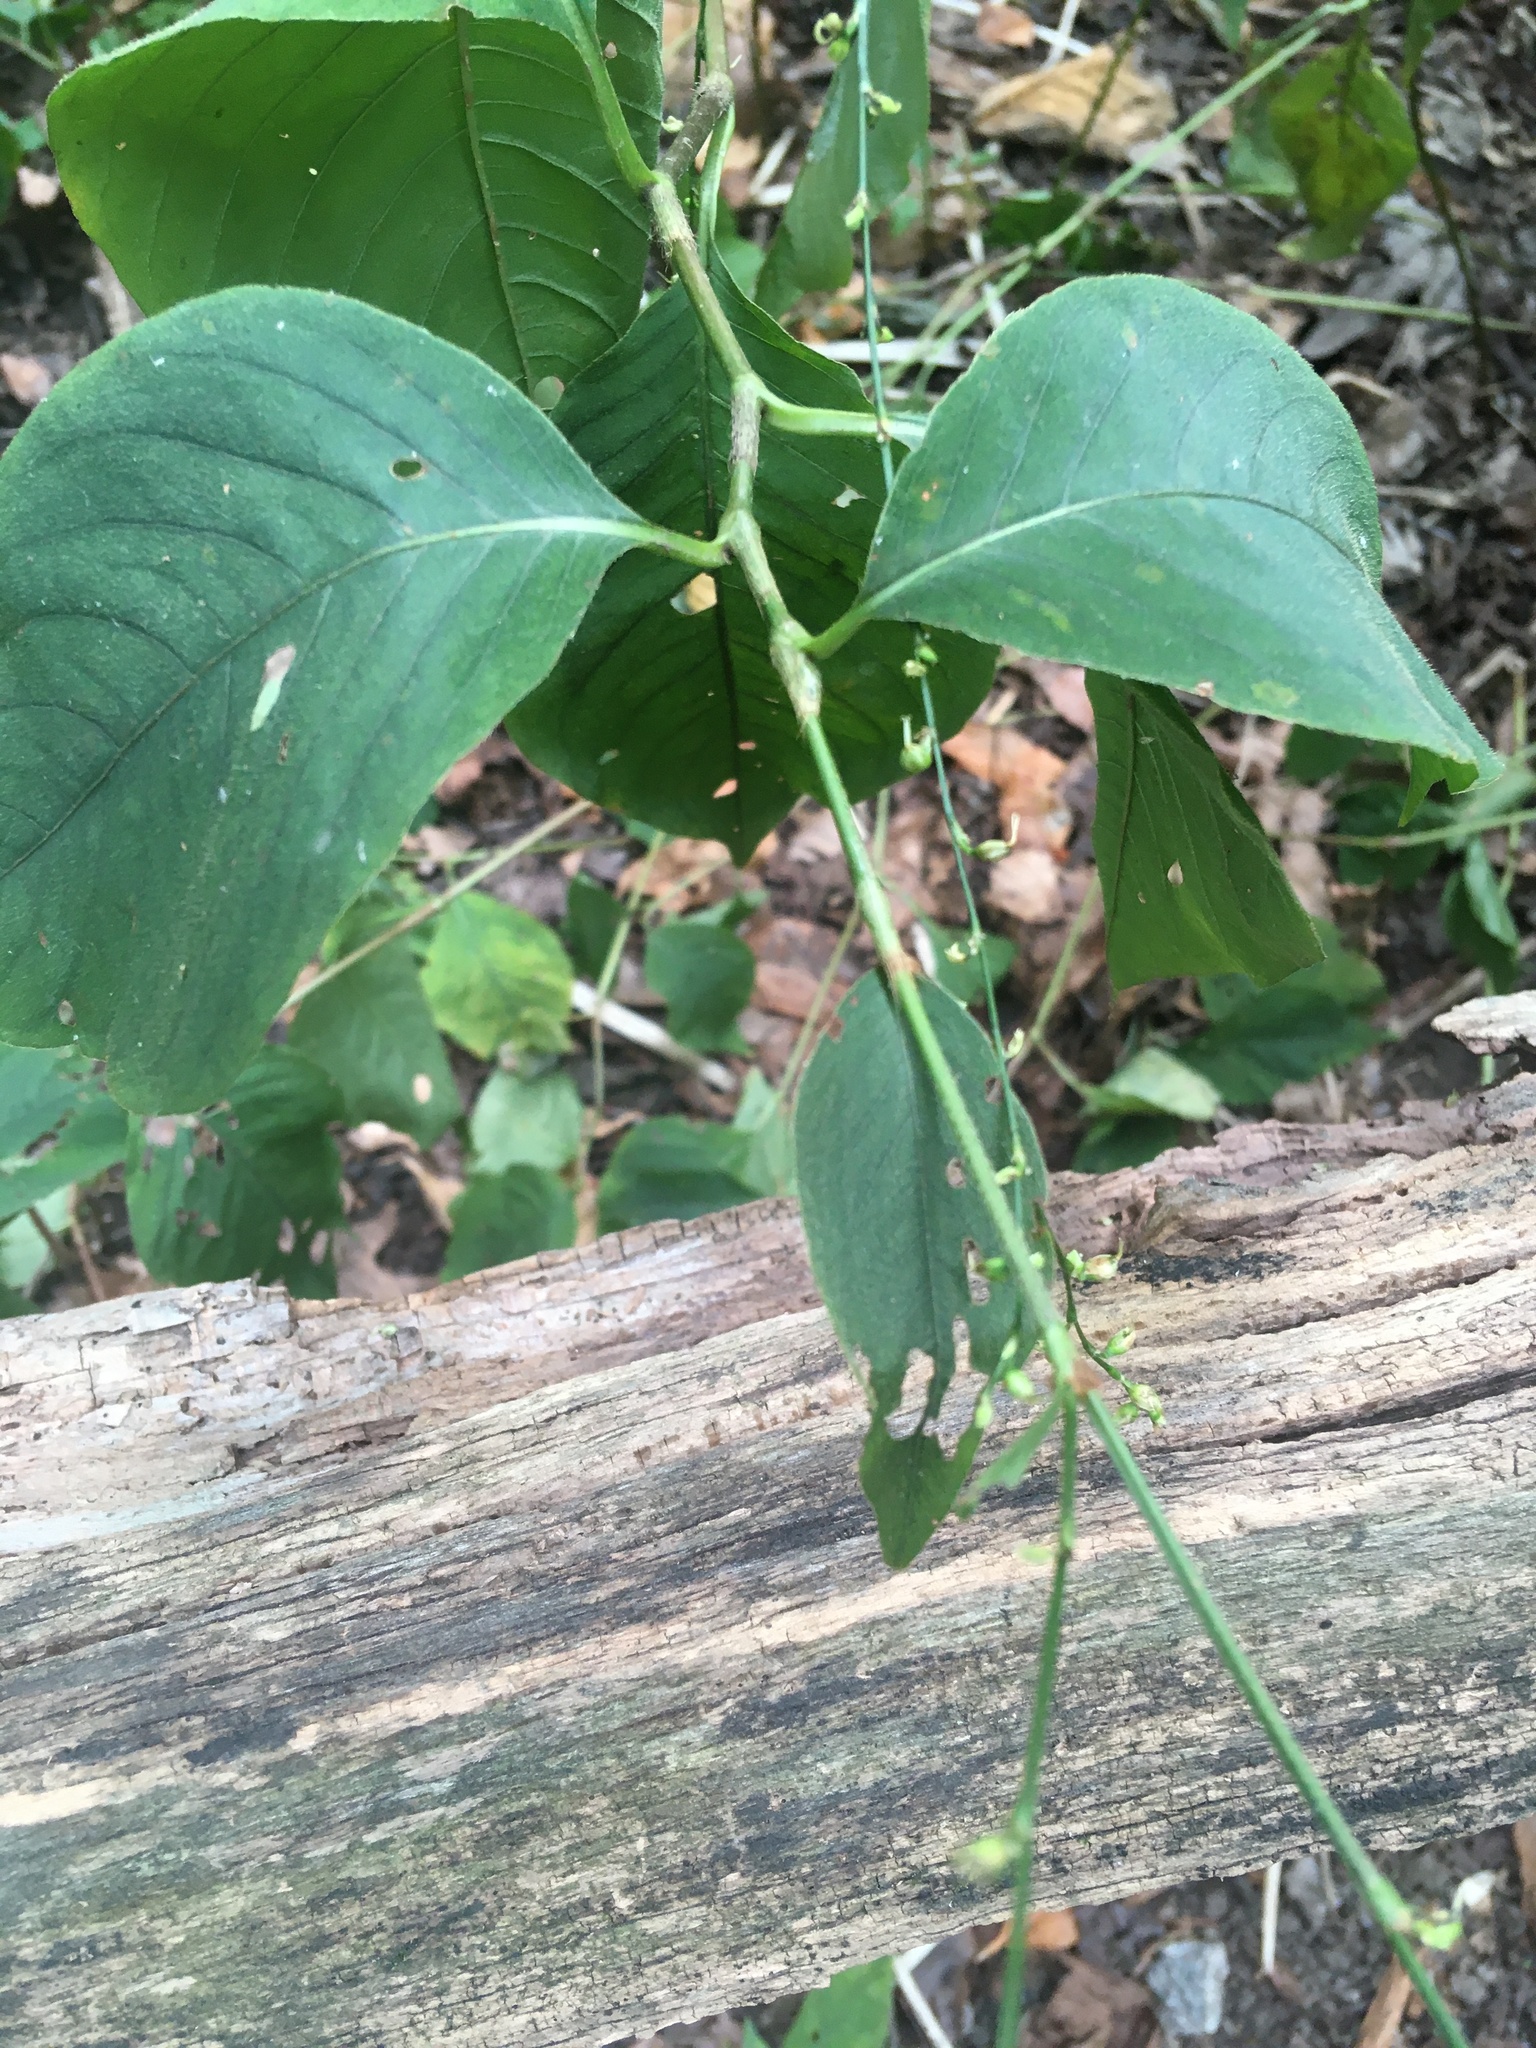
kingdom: Plantae
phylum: Tracheophyta
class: Magnoliopsida
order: Caryophyllales
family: Polygonaceae
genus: Persicaria
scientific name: Persicaria virginiana
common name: Jumpseed
